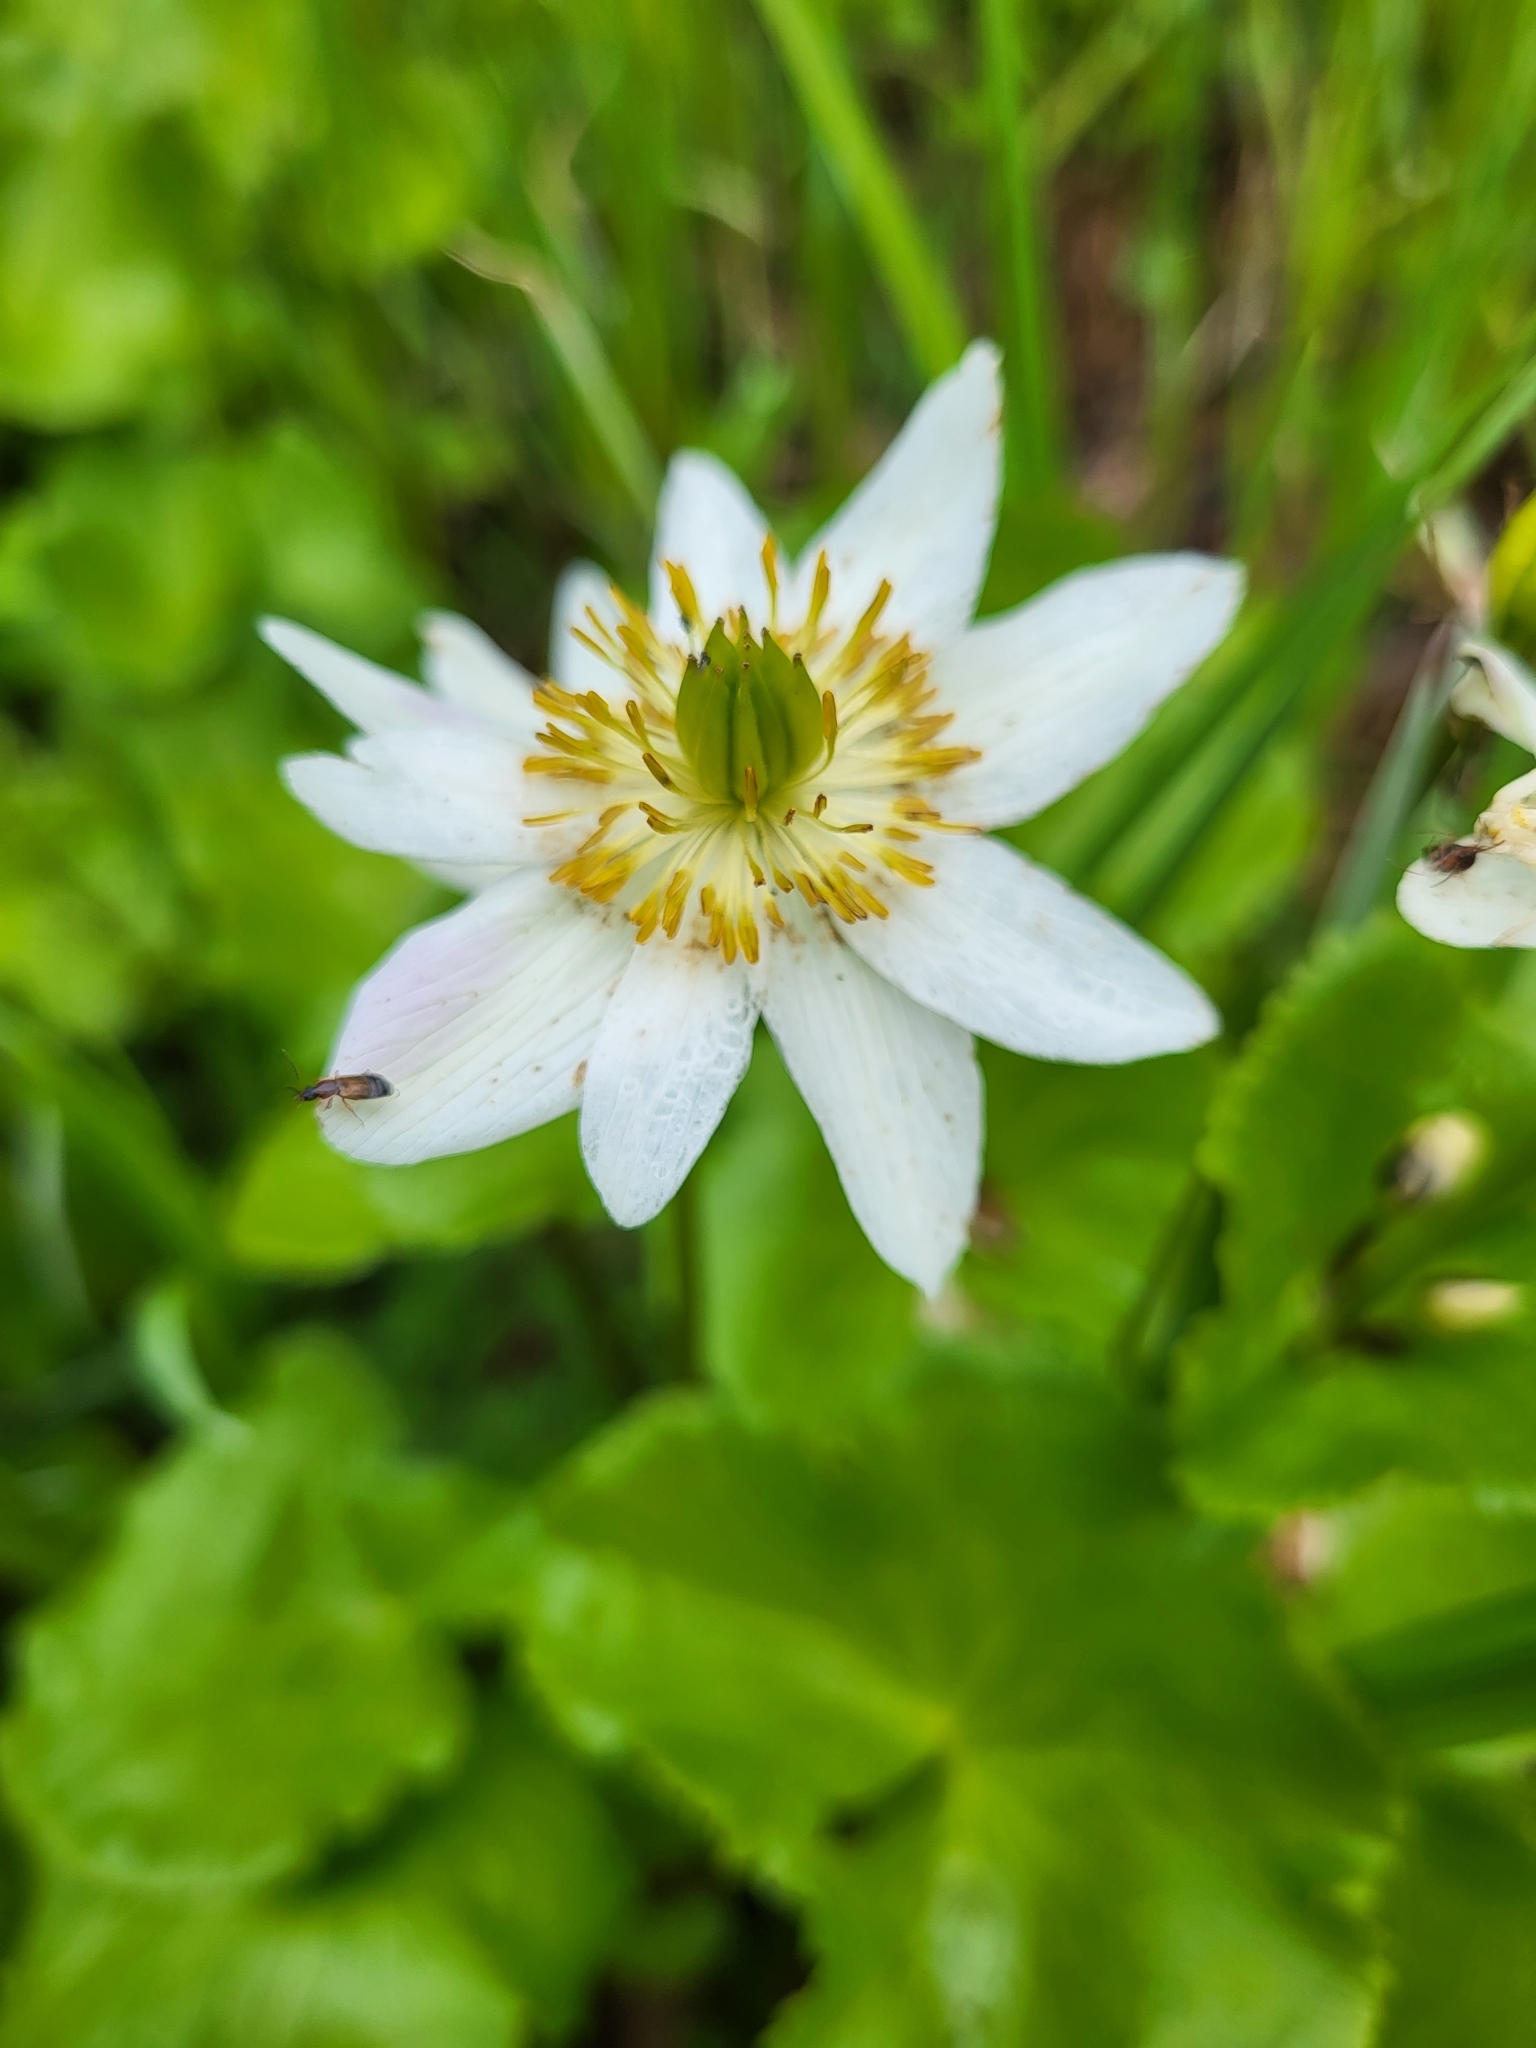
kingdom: Plantae
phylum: Tracheophyta
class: Magnoliopsida
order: Ranunculales
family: Ranunculaceae
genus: Caltha
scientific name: Caltha leptosepala
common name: Elkslip
